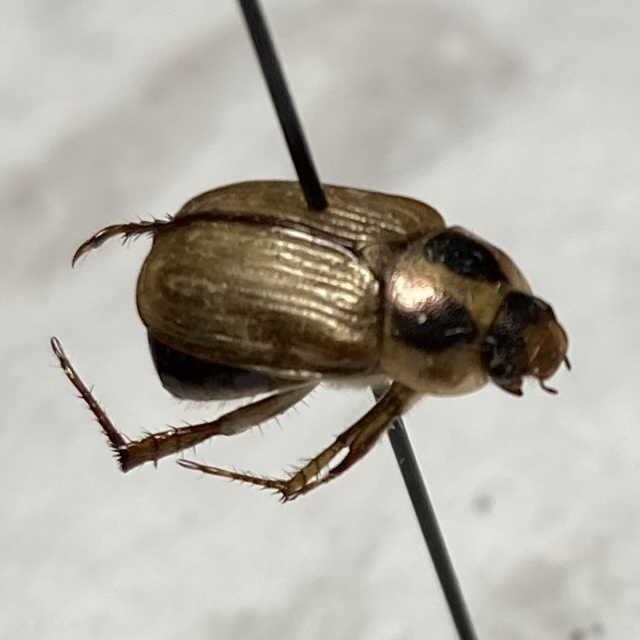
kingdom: Animalia
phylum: Arthropoda
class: Insecta
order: Coleoptera
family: Scarabaeidae
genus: Exomala
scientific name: Exomala orientalis
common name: Oriental beetle
